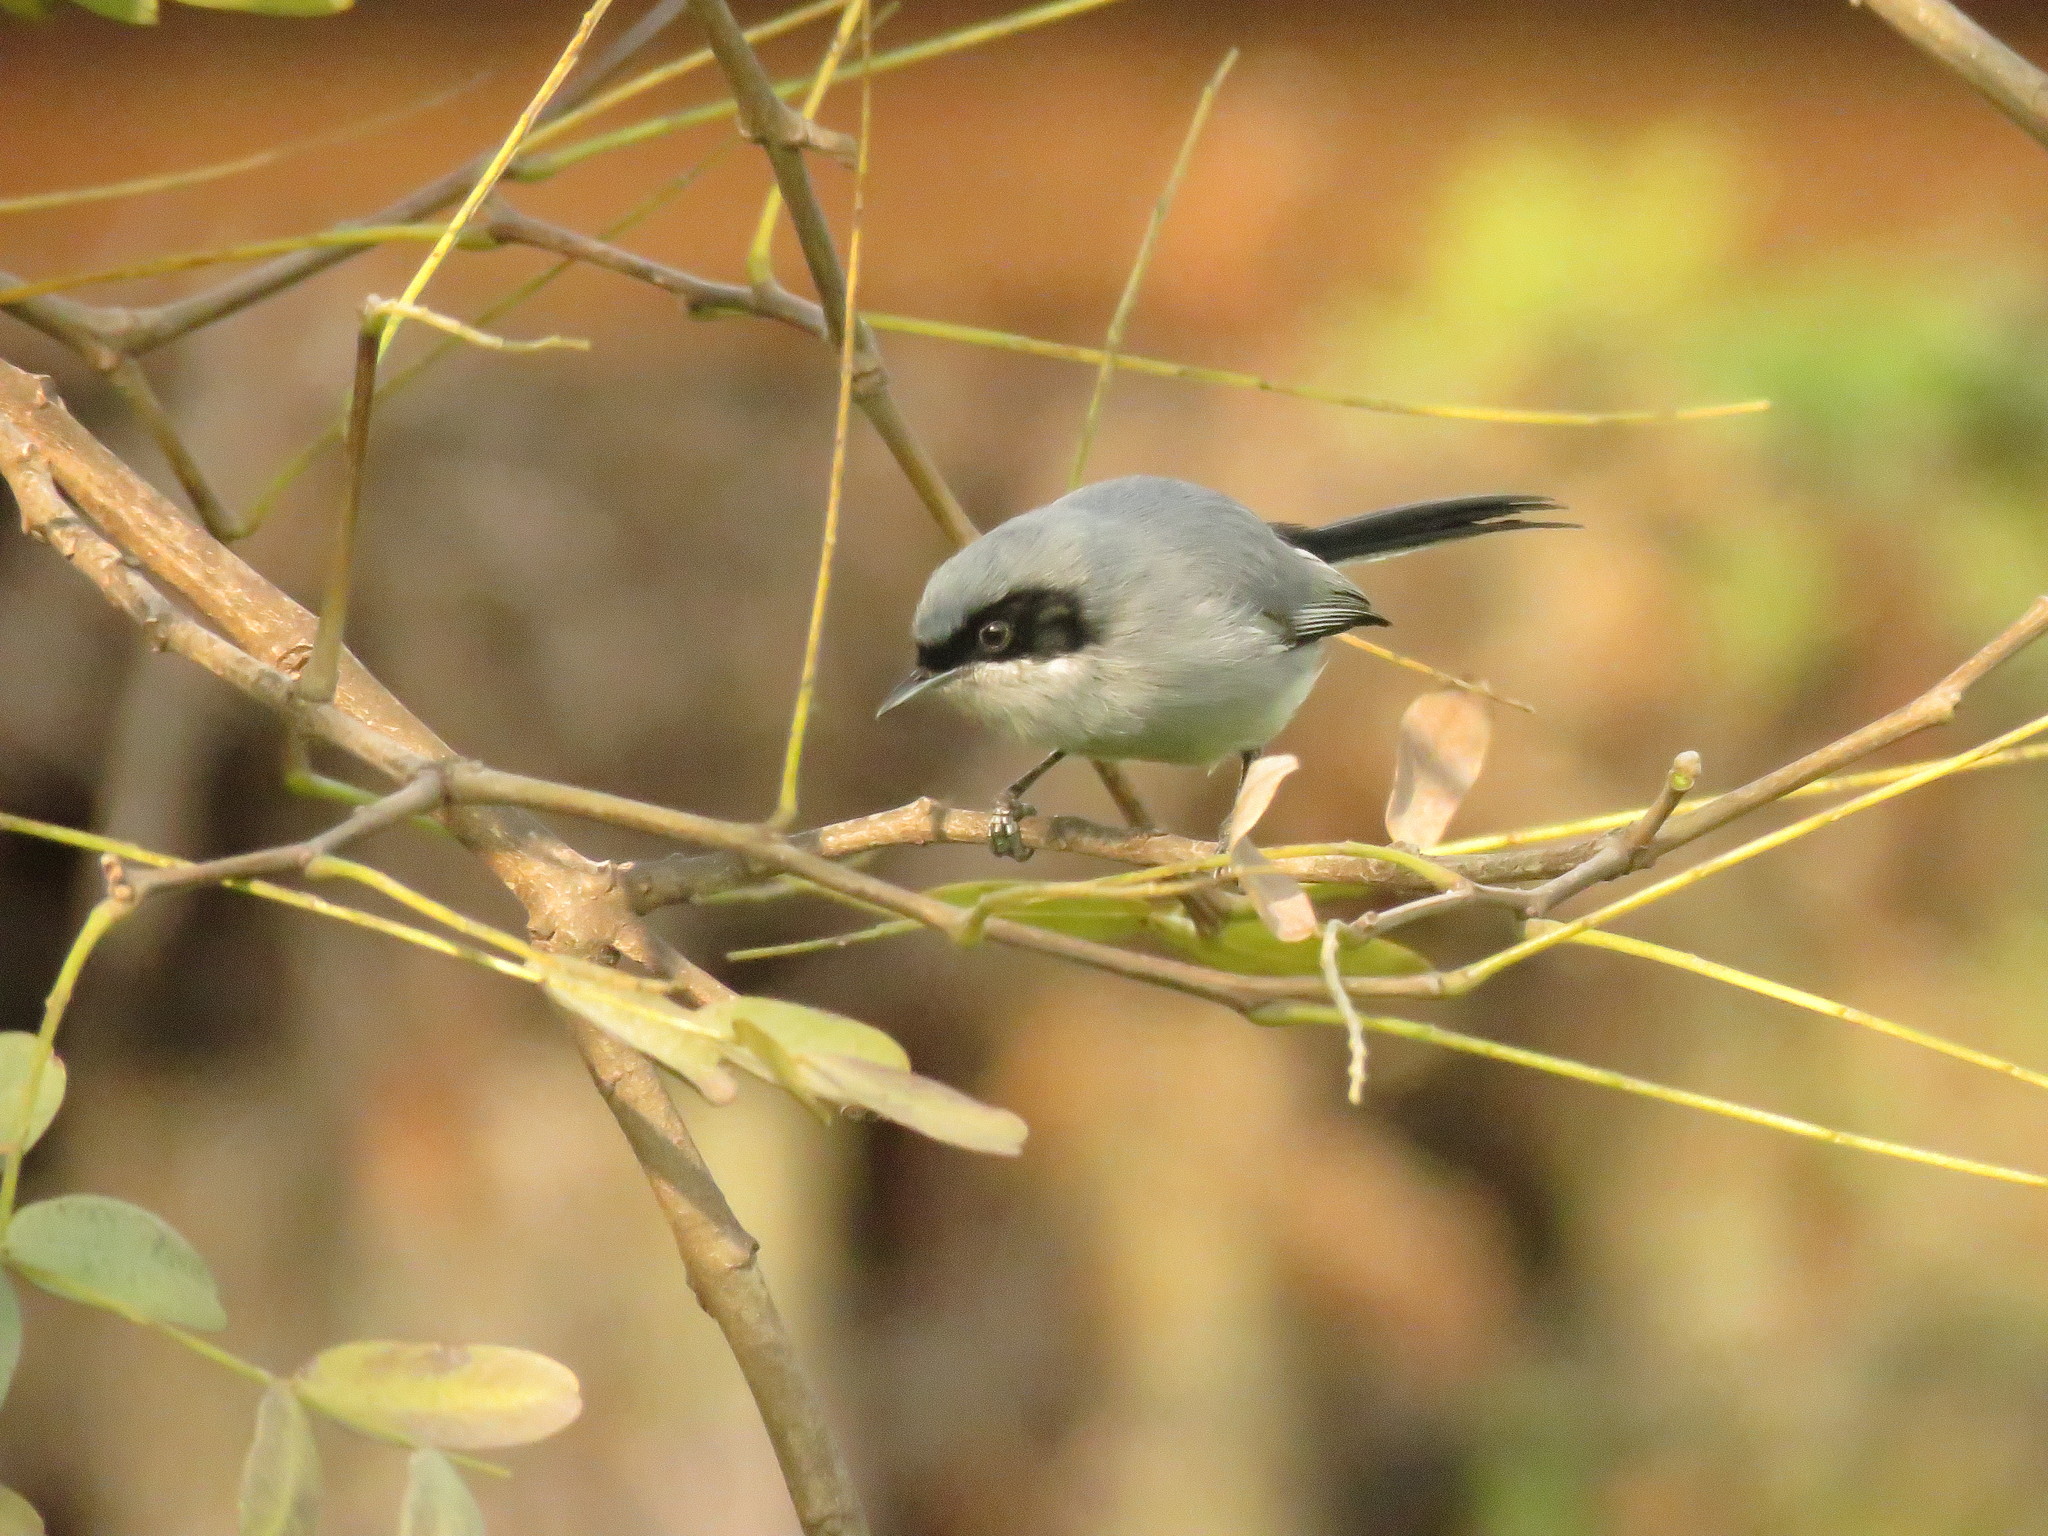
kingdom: Animalia
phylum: Chordata
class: Aves
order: Passeriformes
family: Polioptilidae
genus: Polioptila
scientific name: Polioptila dumicola
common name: Masked gnatcatcher
